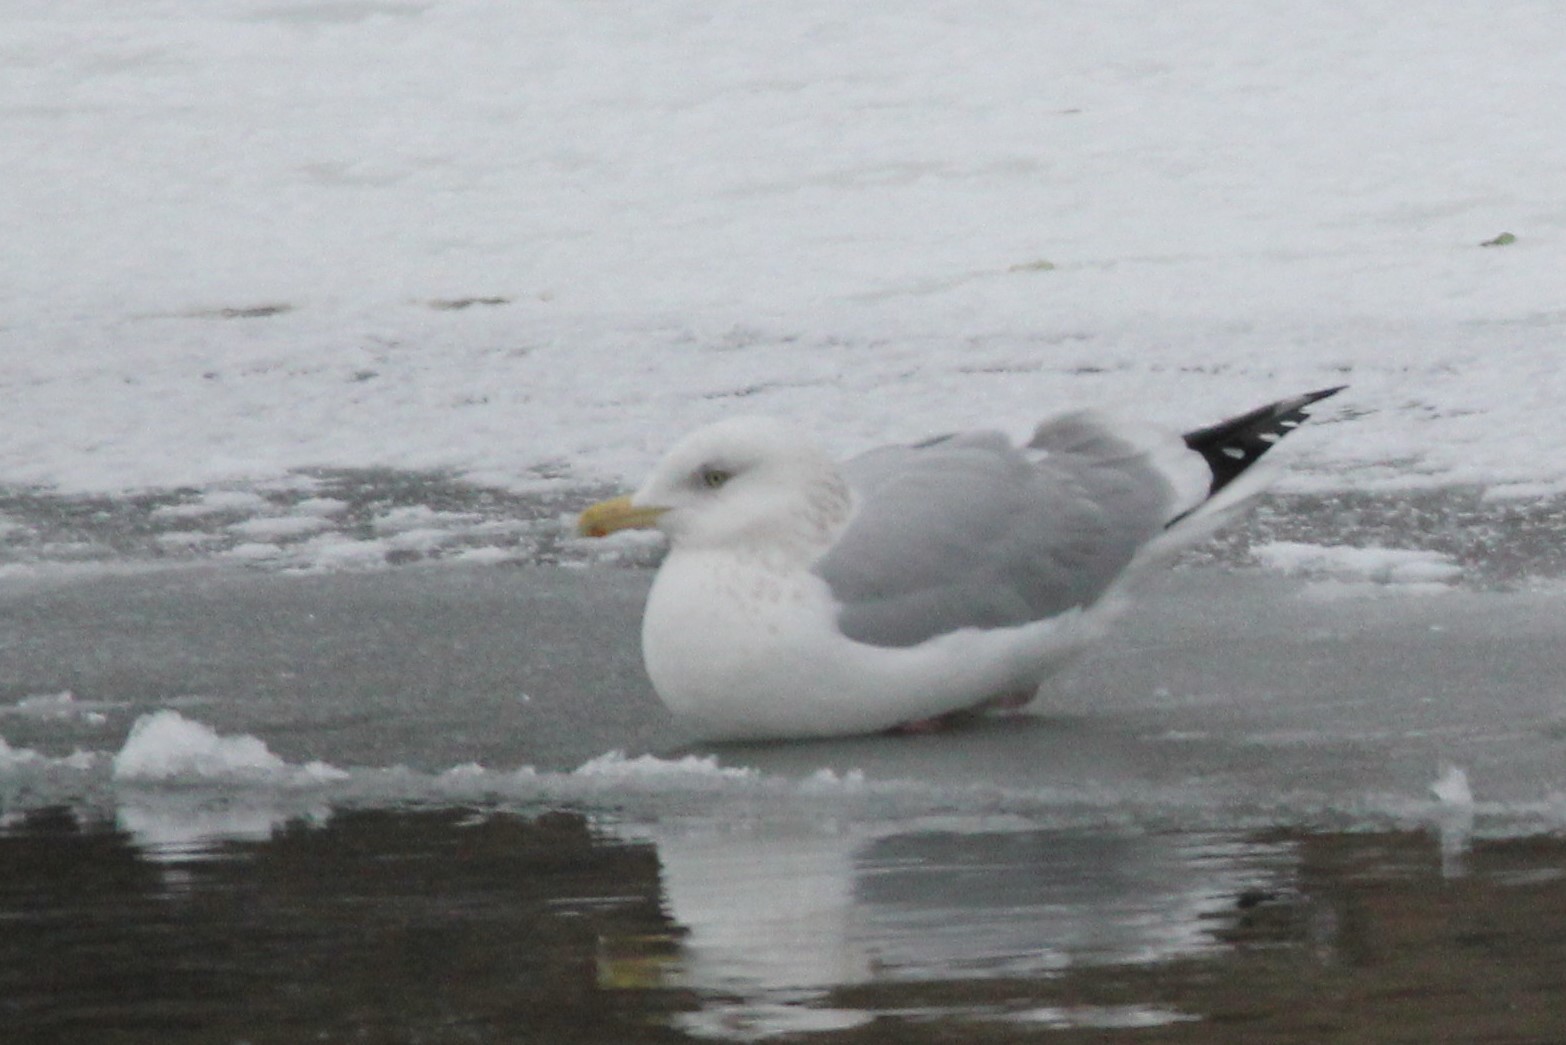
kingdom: Animalia
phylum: Chordata
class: Aves
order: Charadriiformes
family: Laridae
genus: Larus
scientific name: Larus argentatus
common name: Herring gull
